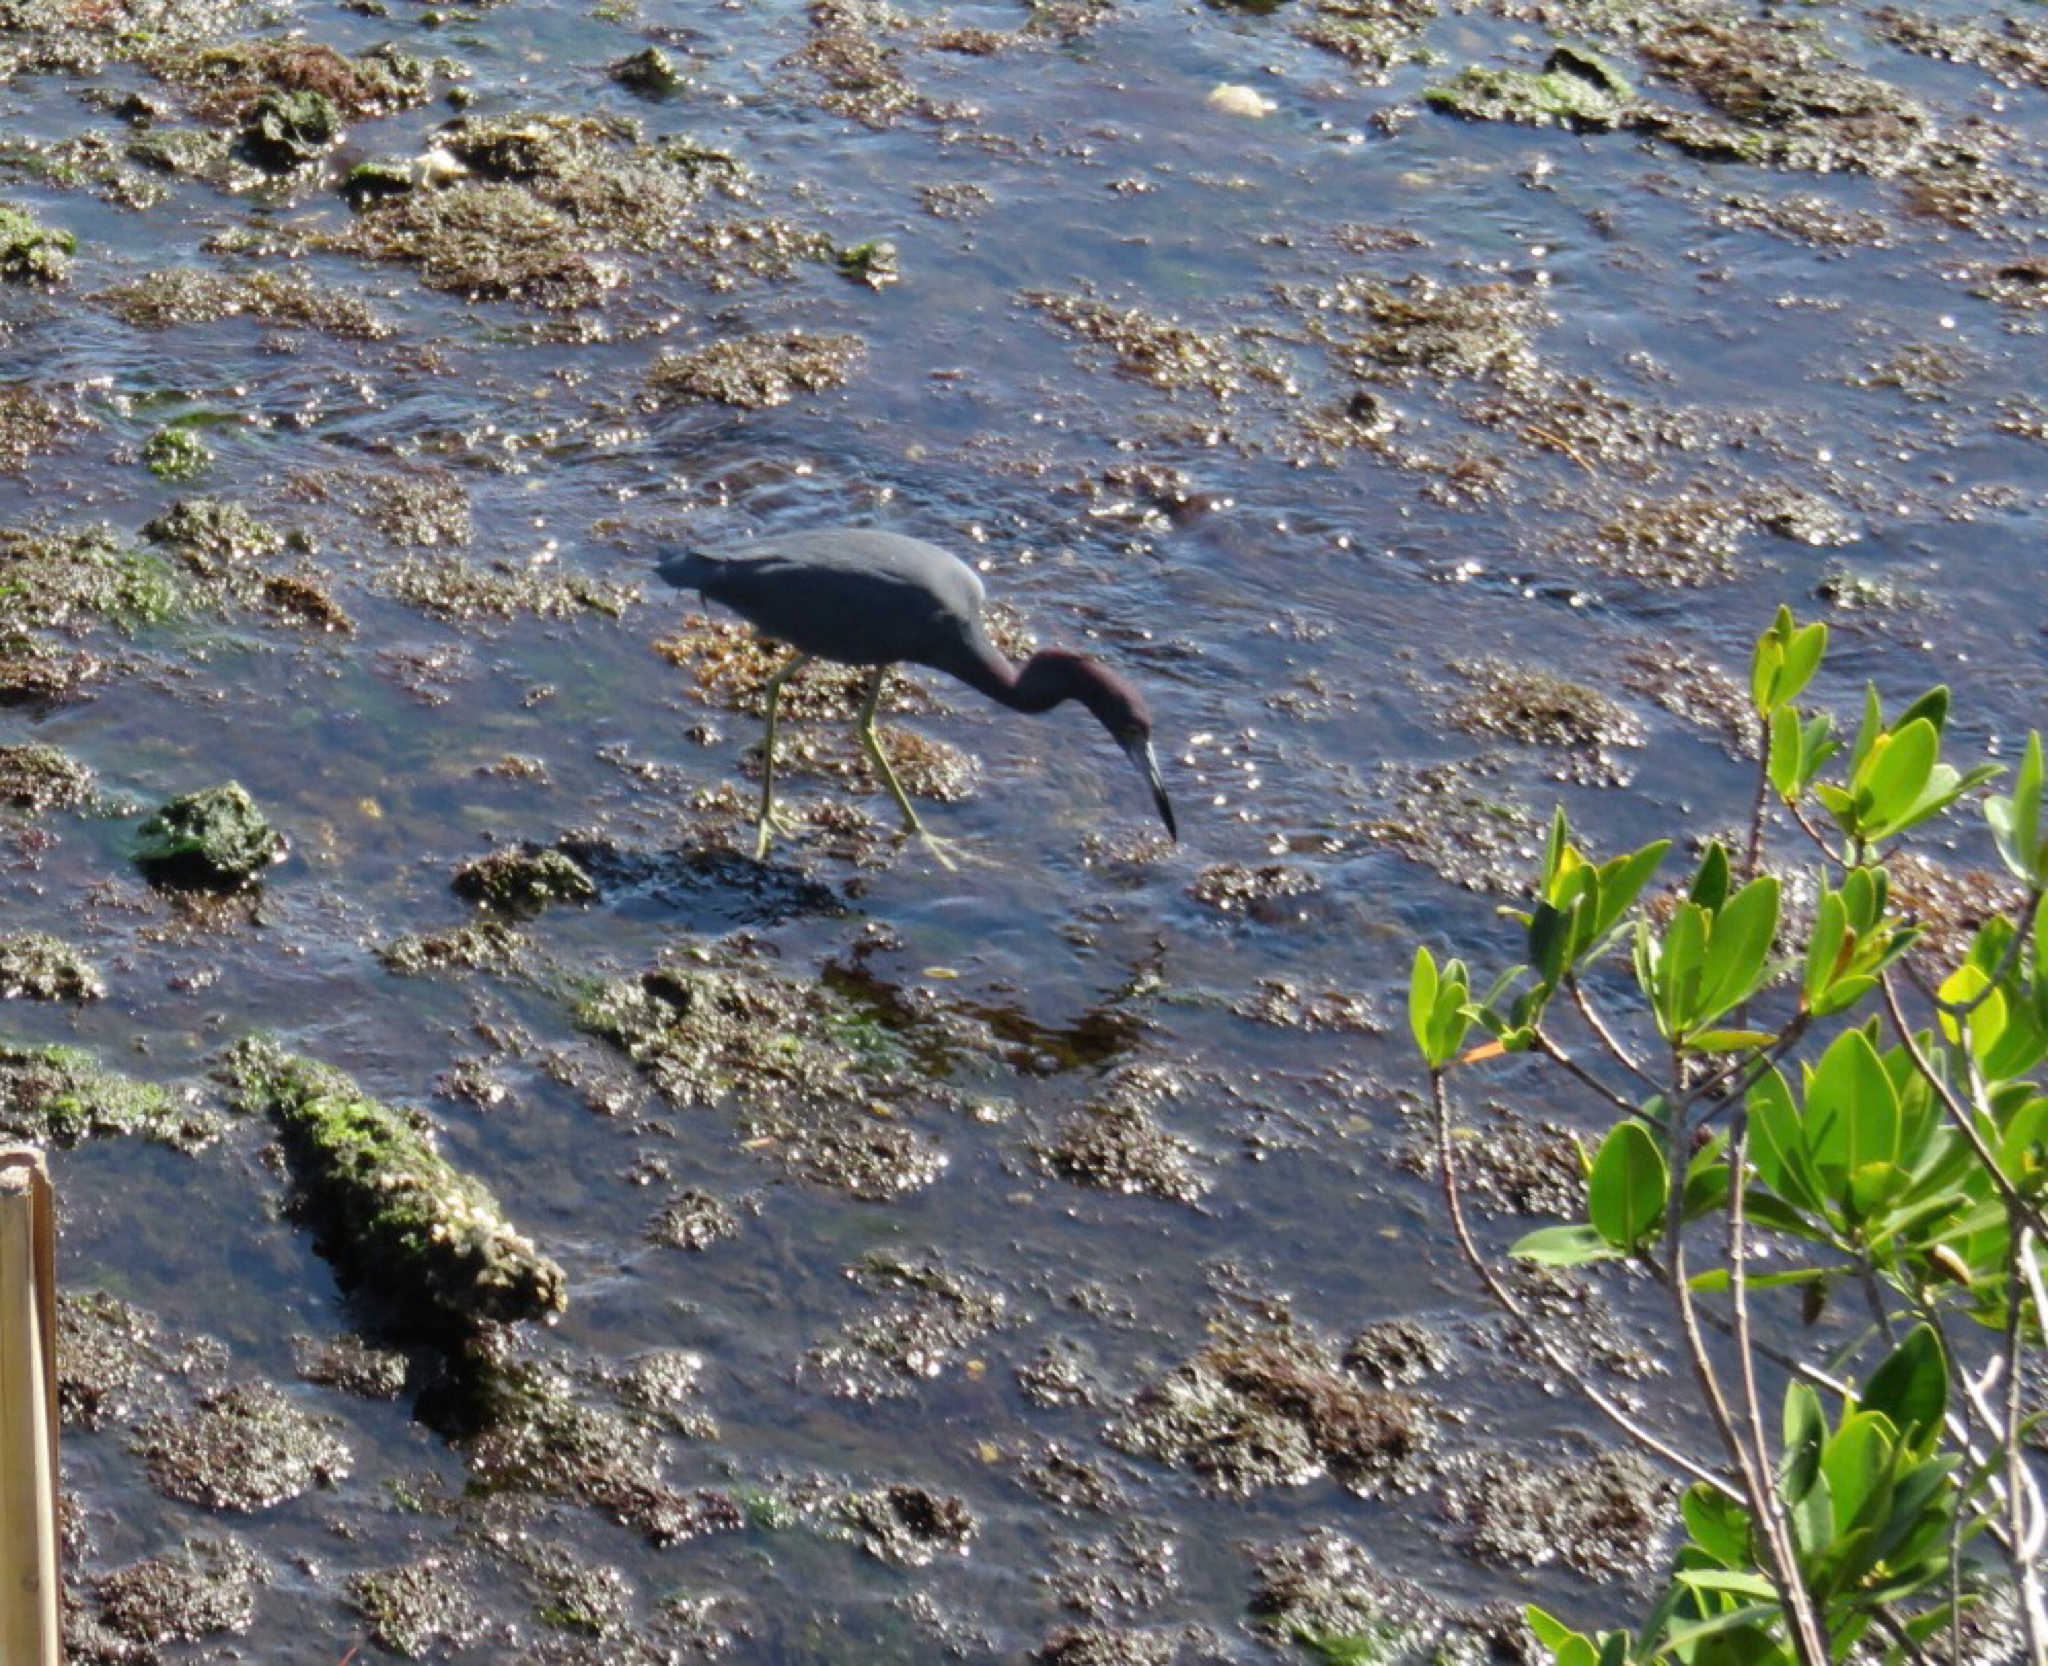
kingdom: Animalia
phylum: Chordata
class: Aves
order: Pelecaniformes
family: Ardeidae
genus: Egretta
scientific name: Egretta caerulea
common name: Little blue heron
